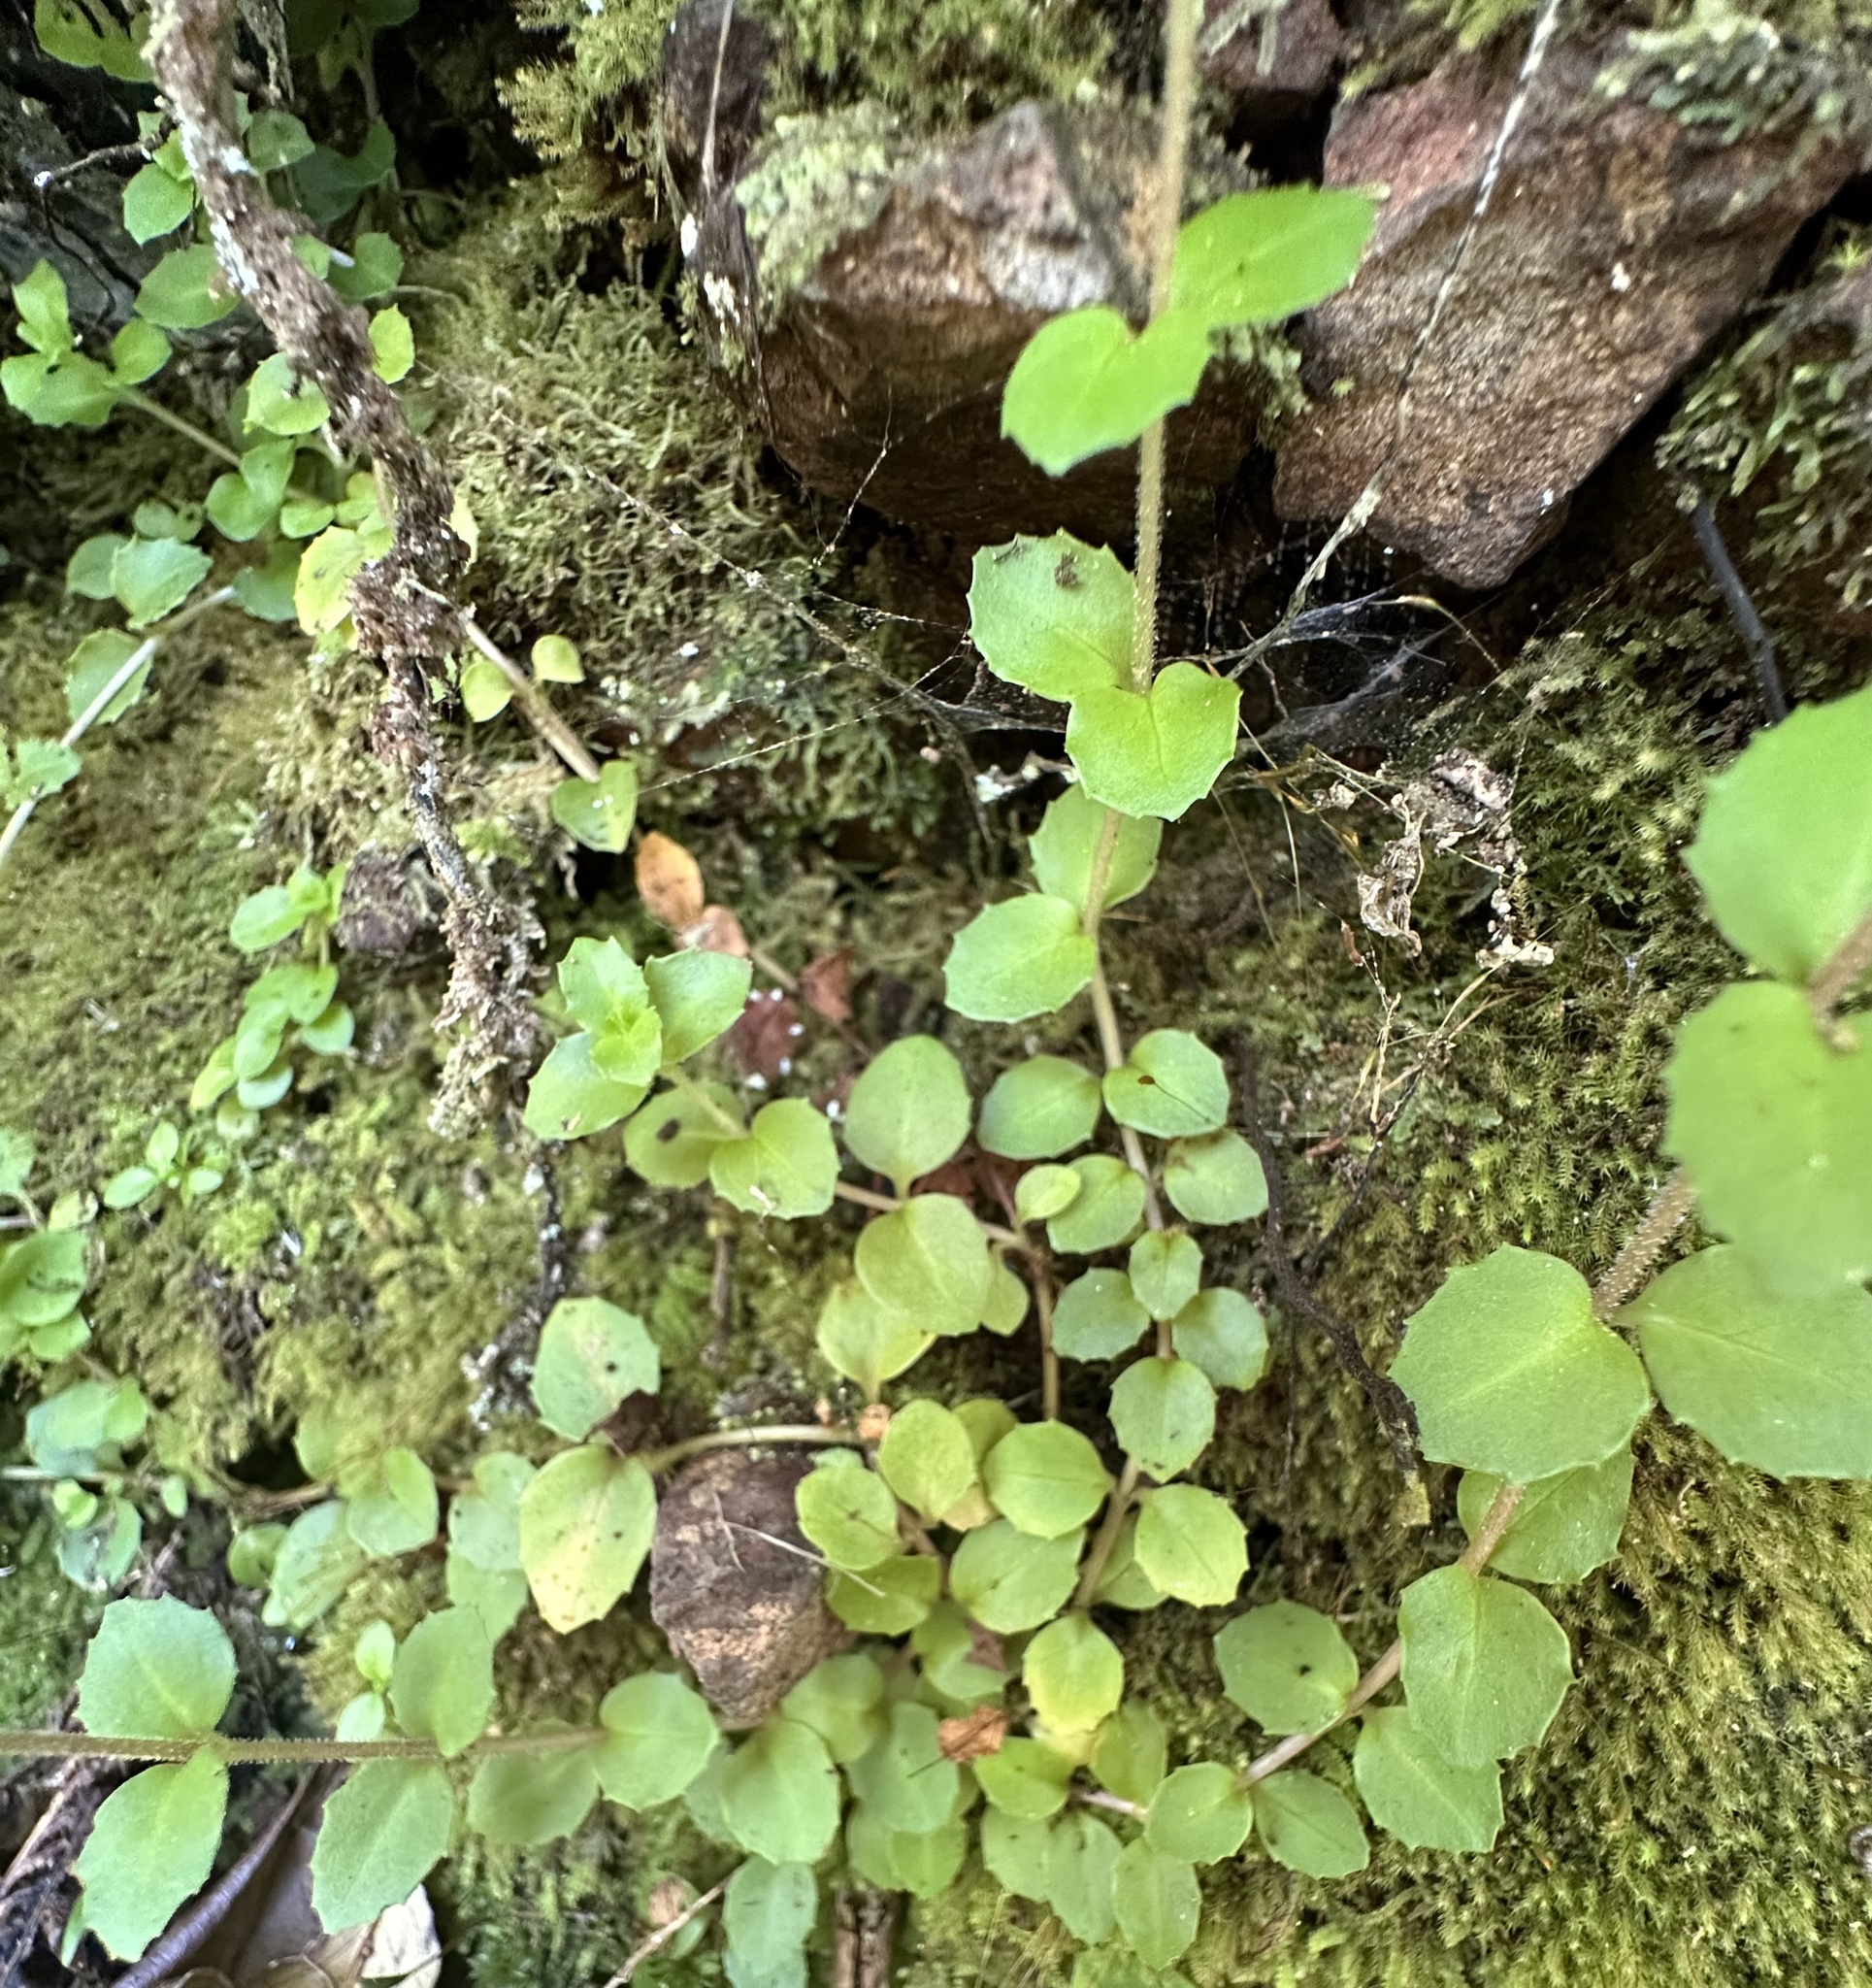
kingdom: Plantae
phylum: Tracheophyta
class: Magnoliopsida
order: Myrtales
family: Onagraceae
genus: Epilobium
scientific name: Epilobium rotundifolium
